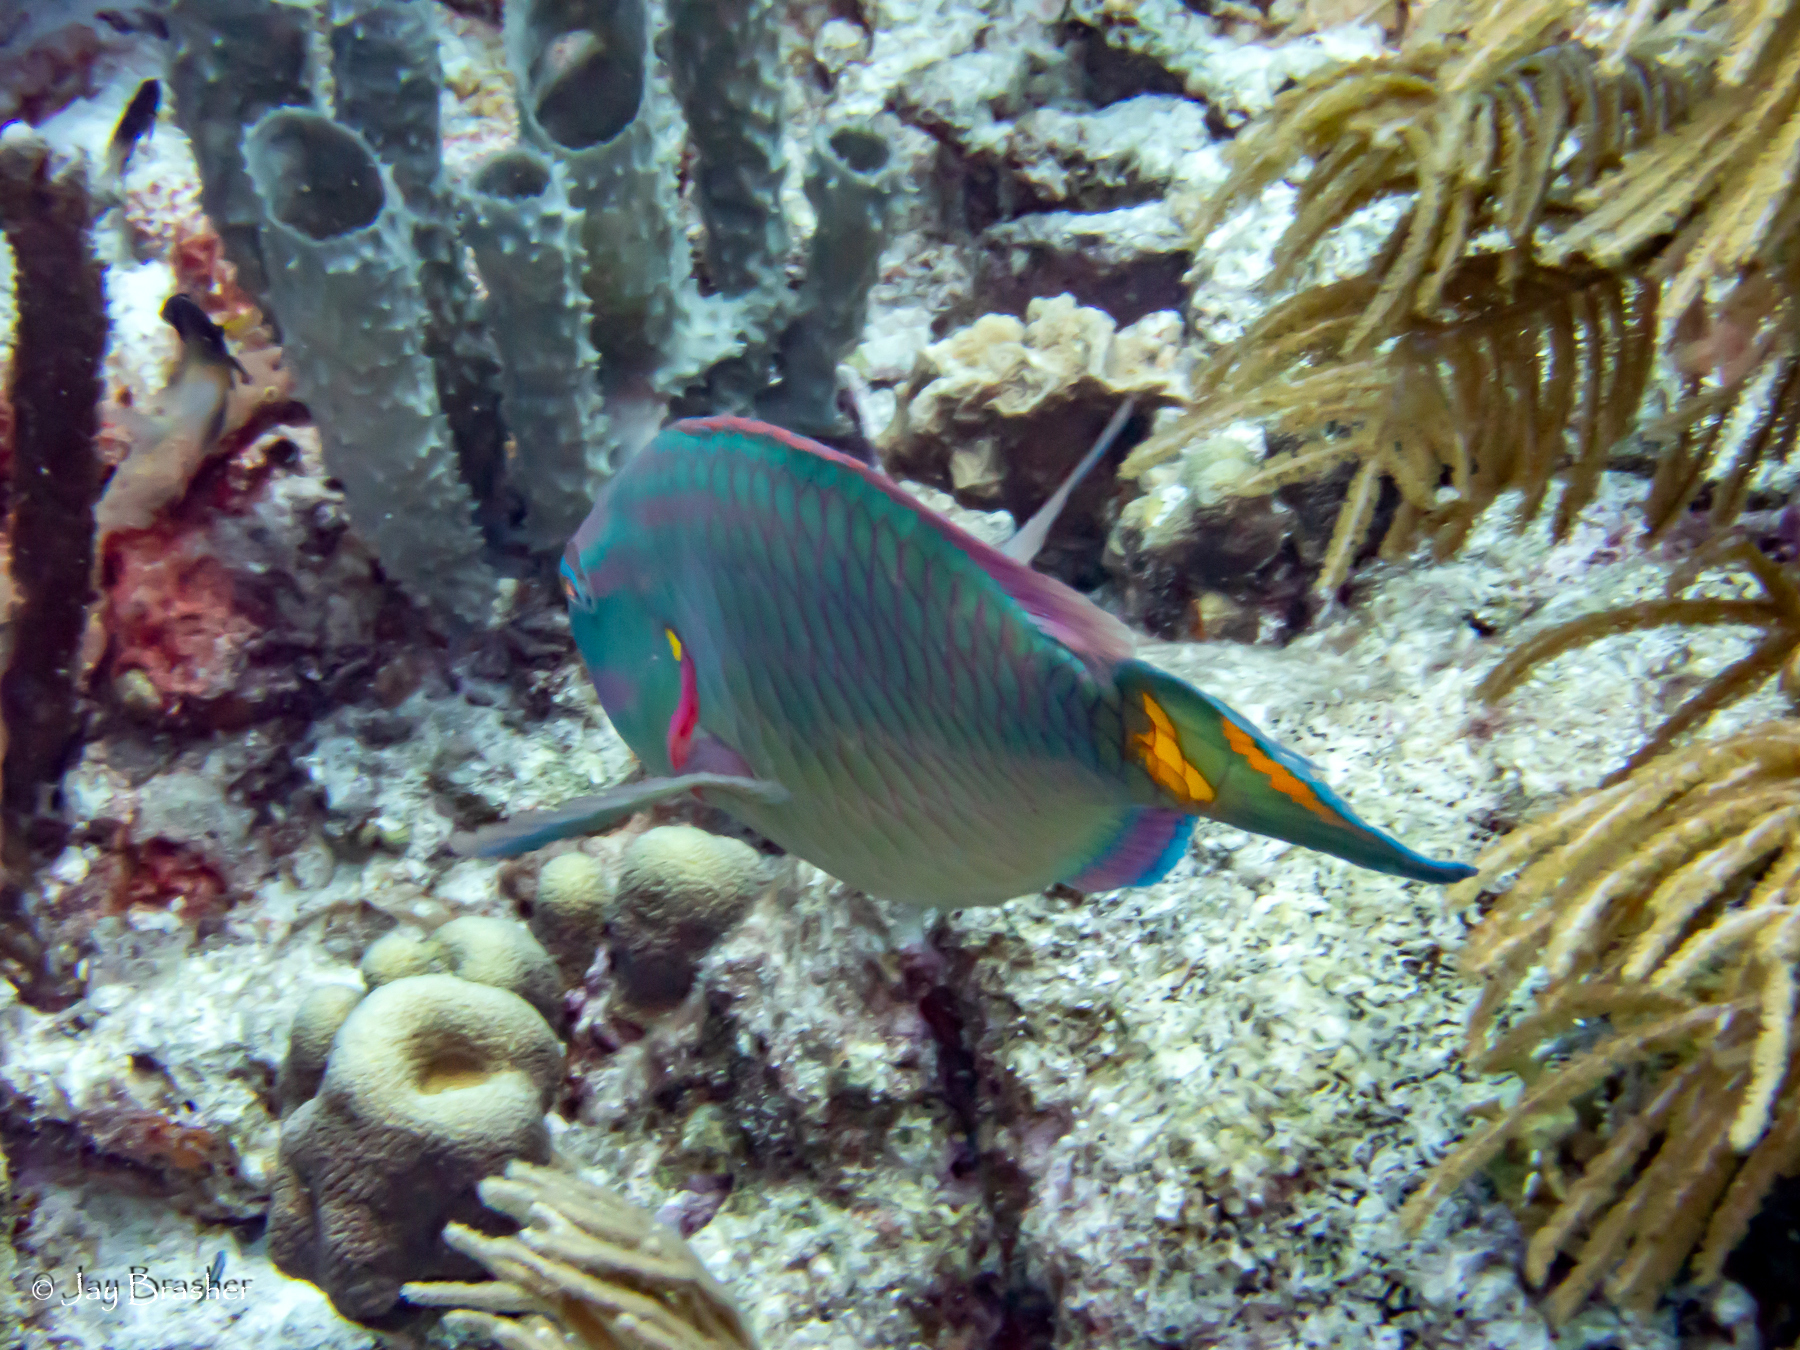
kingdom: Animalia
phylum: Chordata
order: Perciformes
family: Scaridae
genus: Sparisoma
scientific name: Sparisoma viride
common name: Stoplight parrotfish
